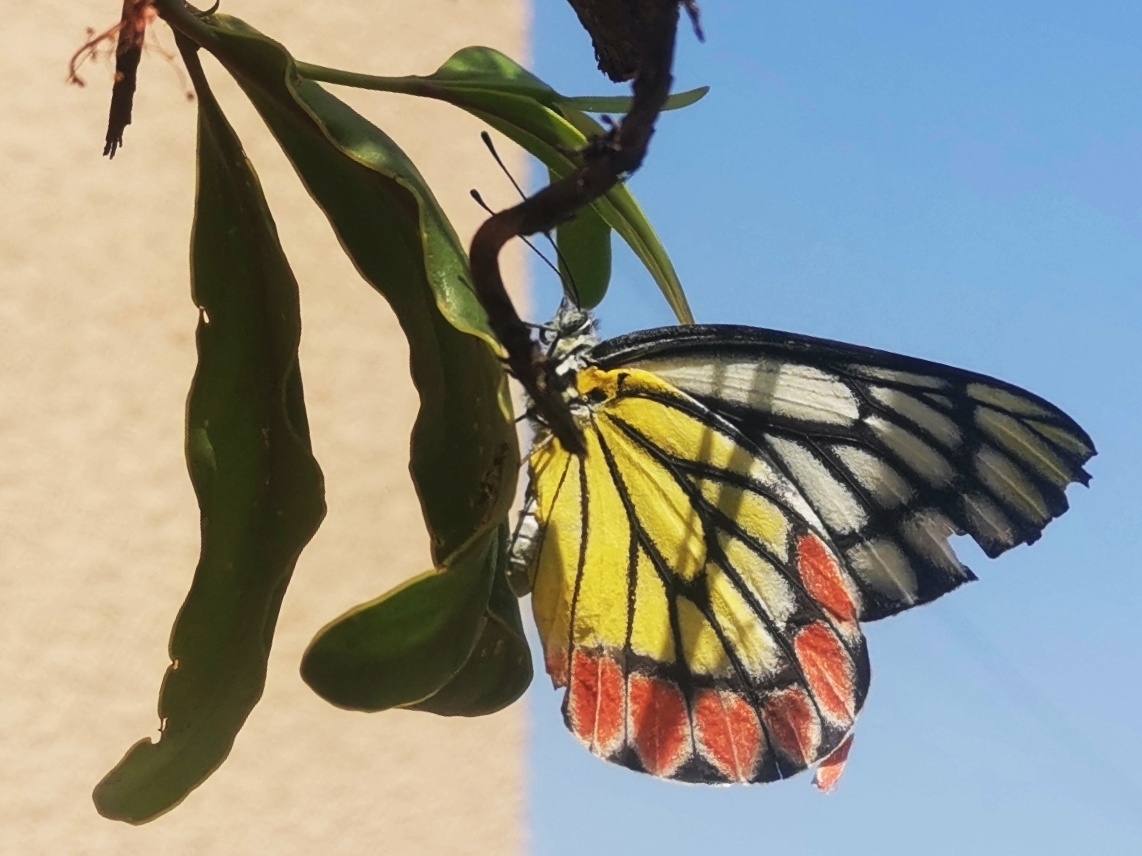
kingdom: Animalia
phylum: Arthropoda
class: Insecta
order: Lepidoptera
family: Pieridae
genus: Delias
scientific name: Delias eucharis
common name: Common jezebel
